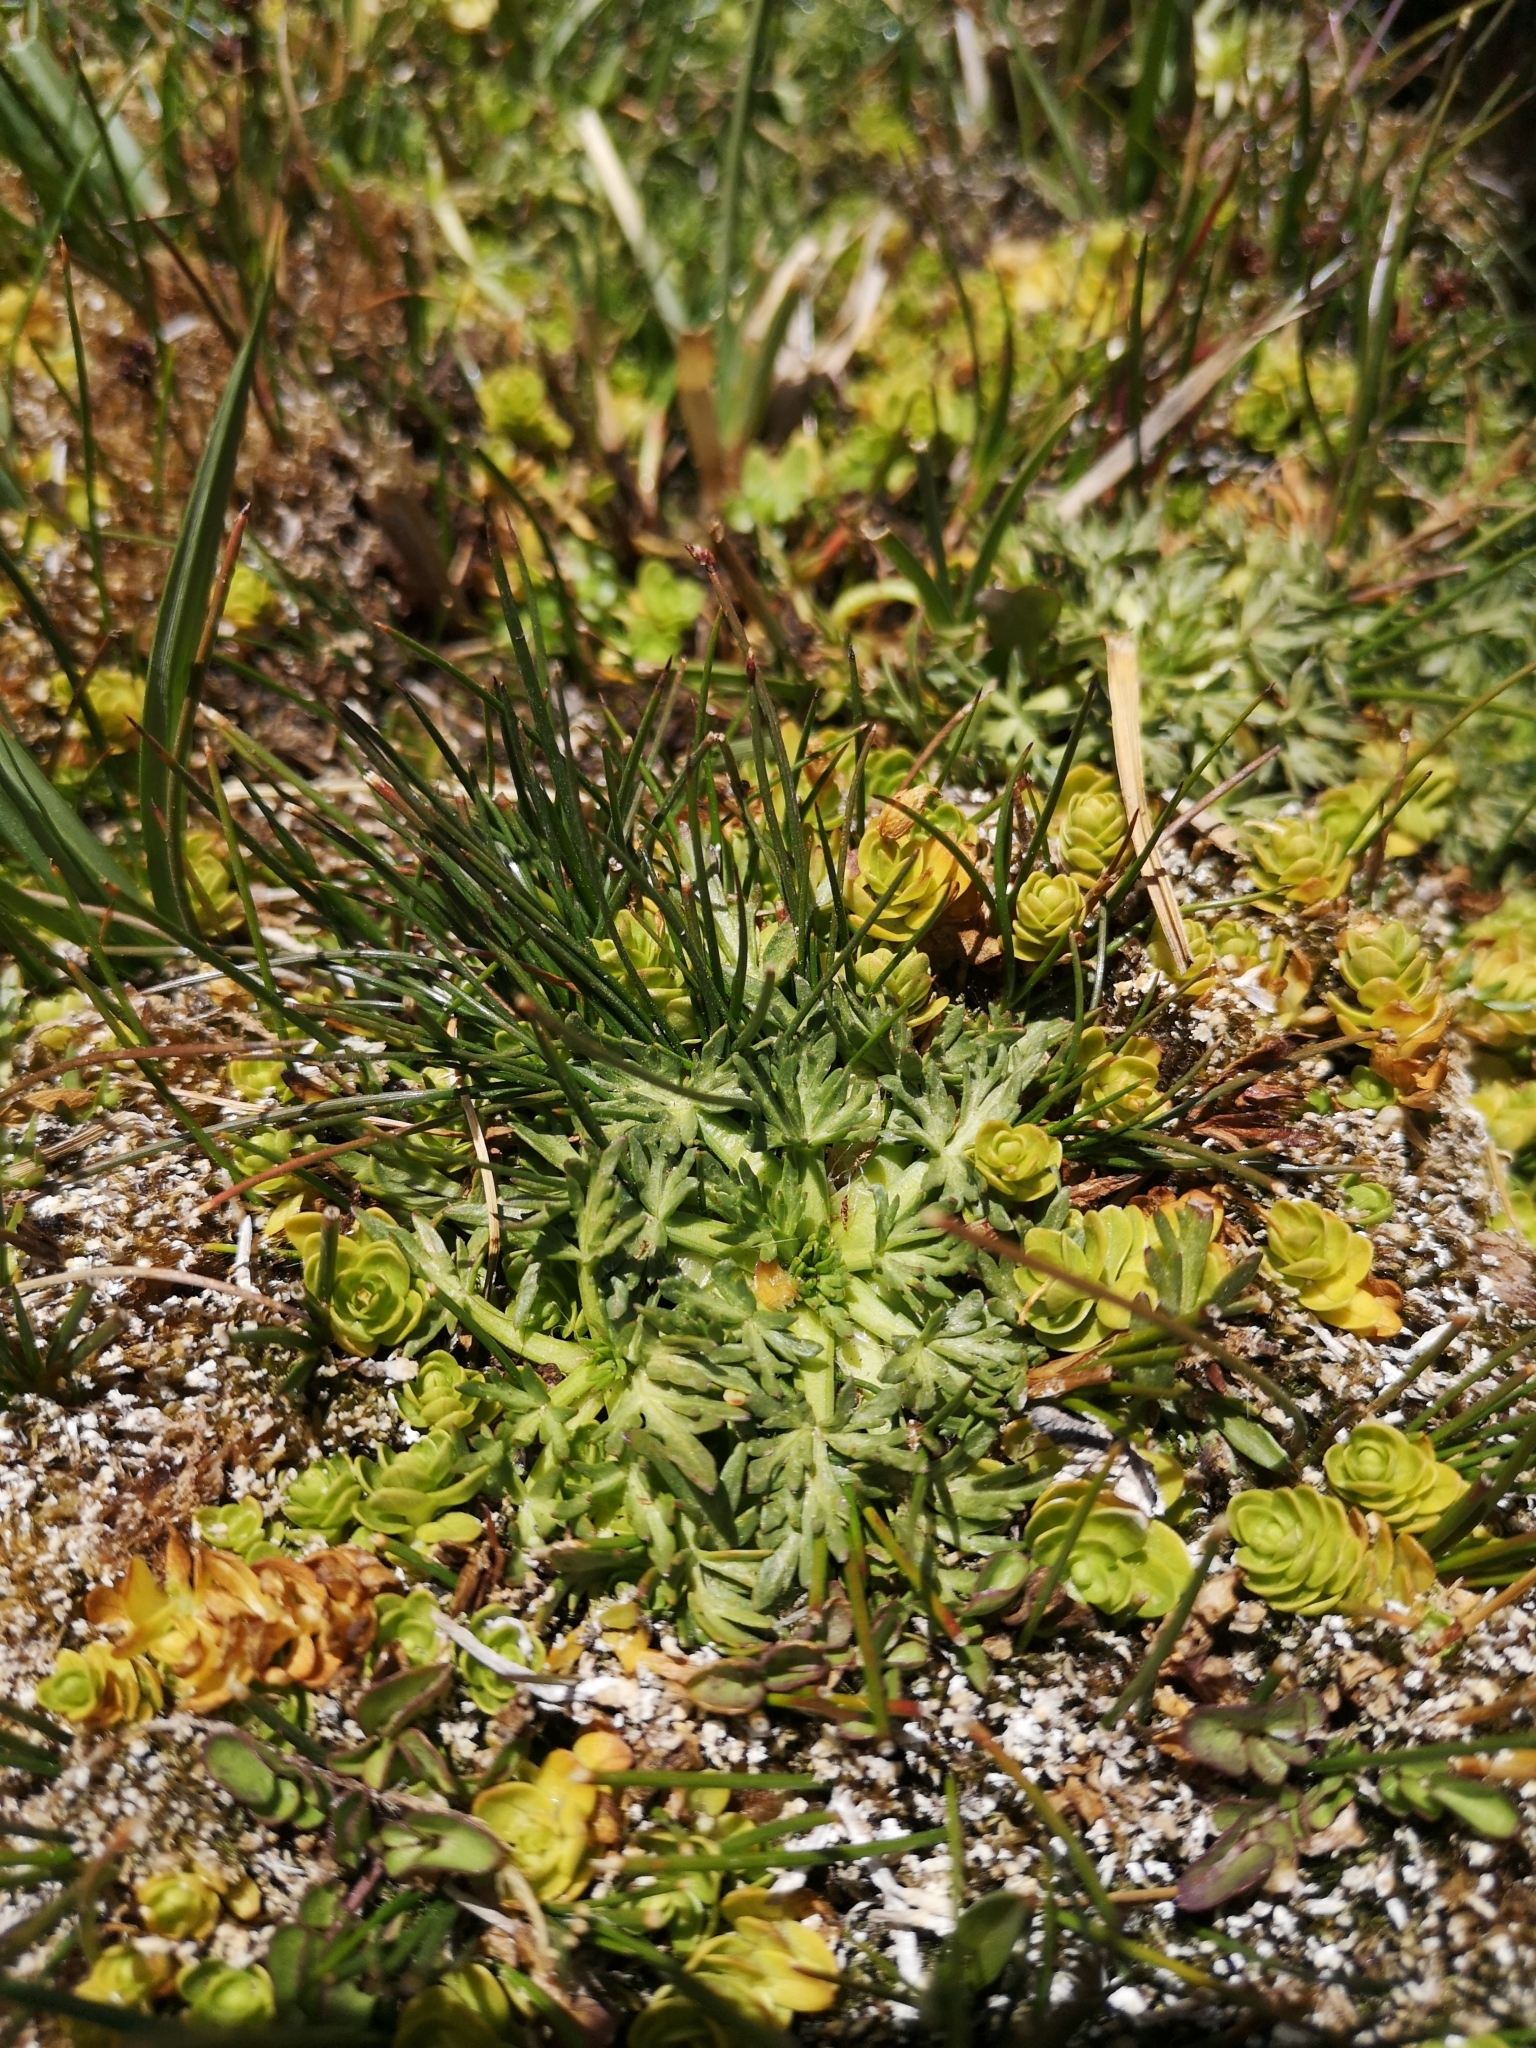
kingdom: Plantae
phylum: Tracheophyta
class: Magnoliopsida
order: Apiales
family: Apiaceae
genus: Azorella
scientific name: Azorella trifoliolata
